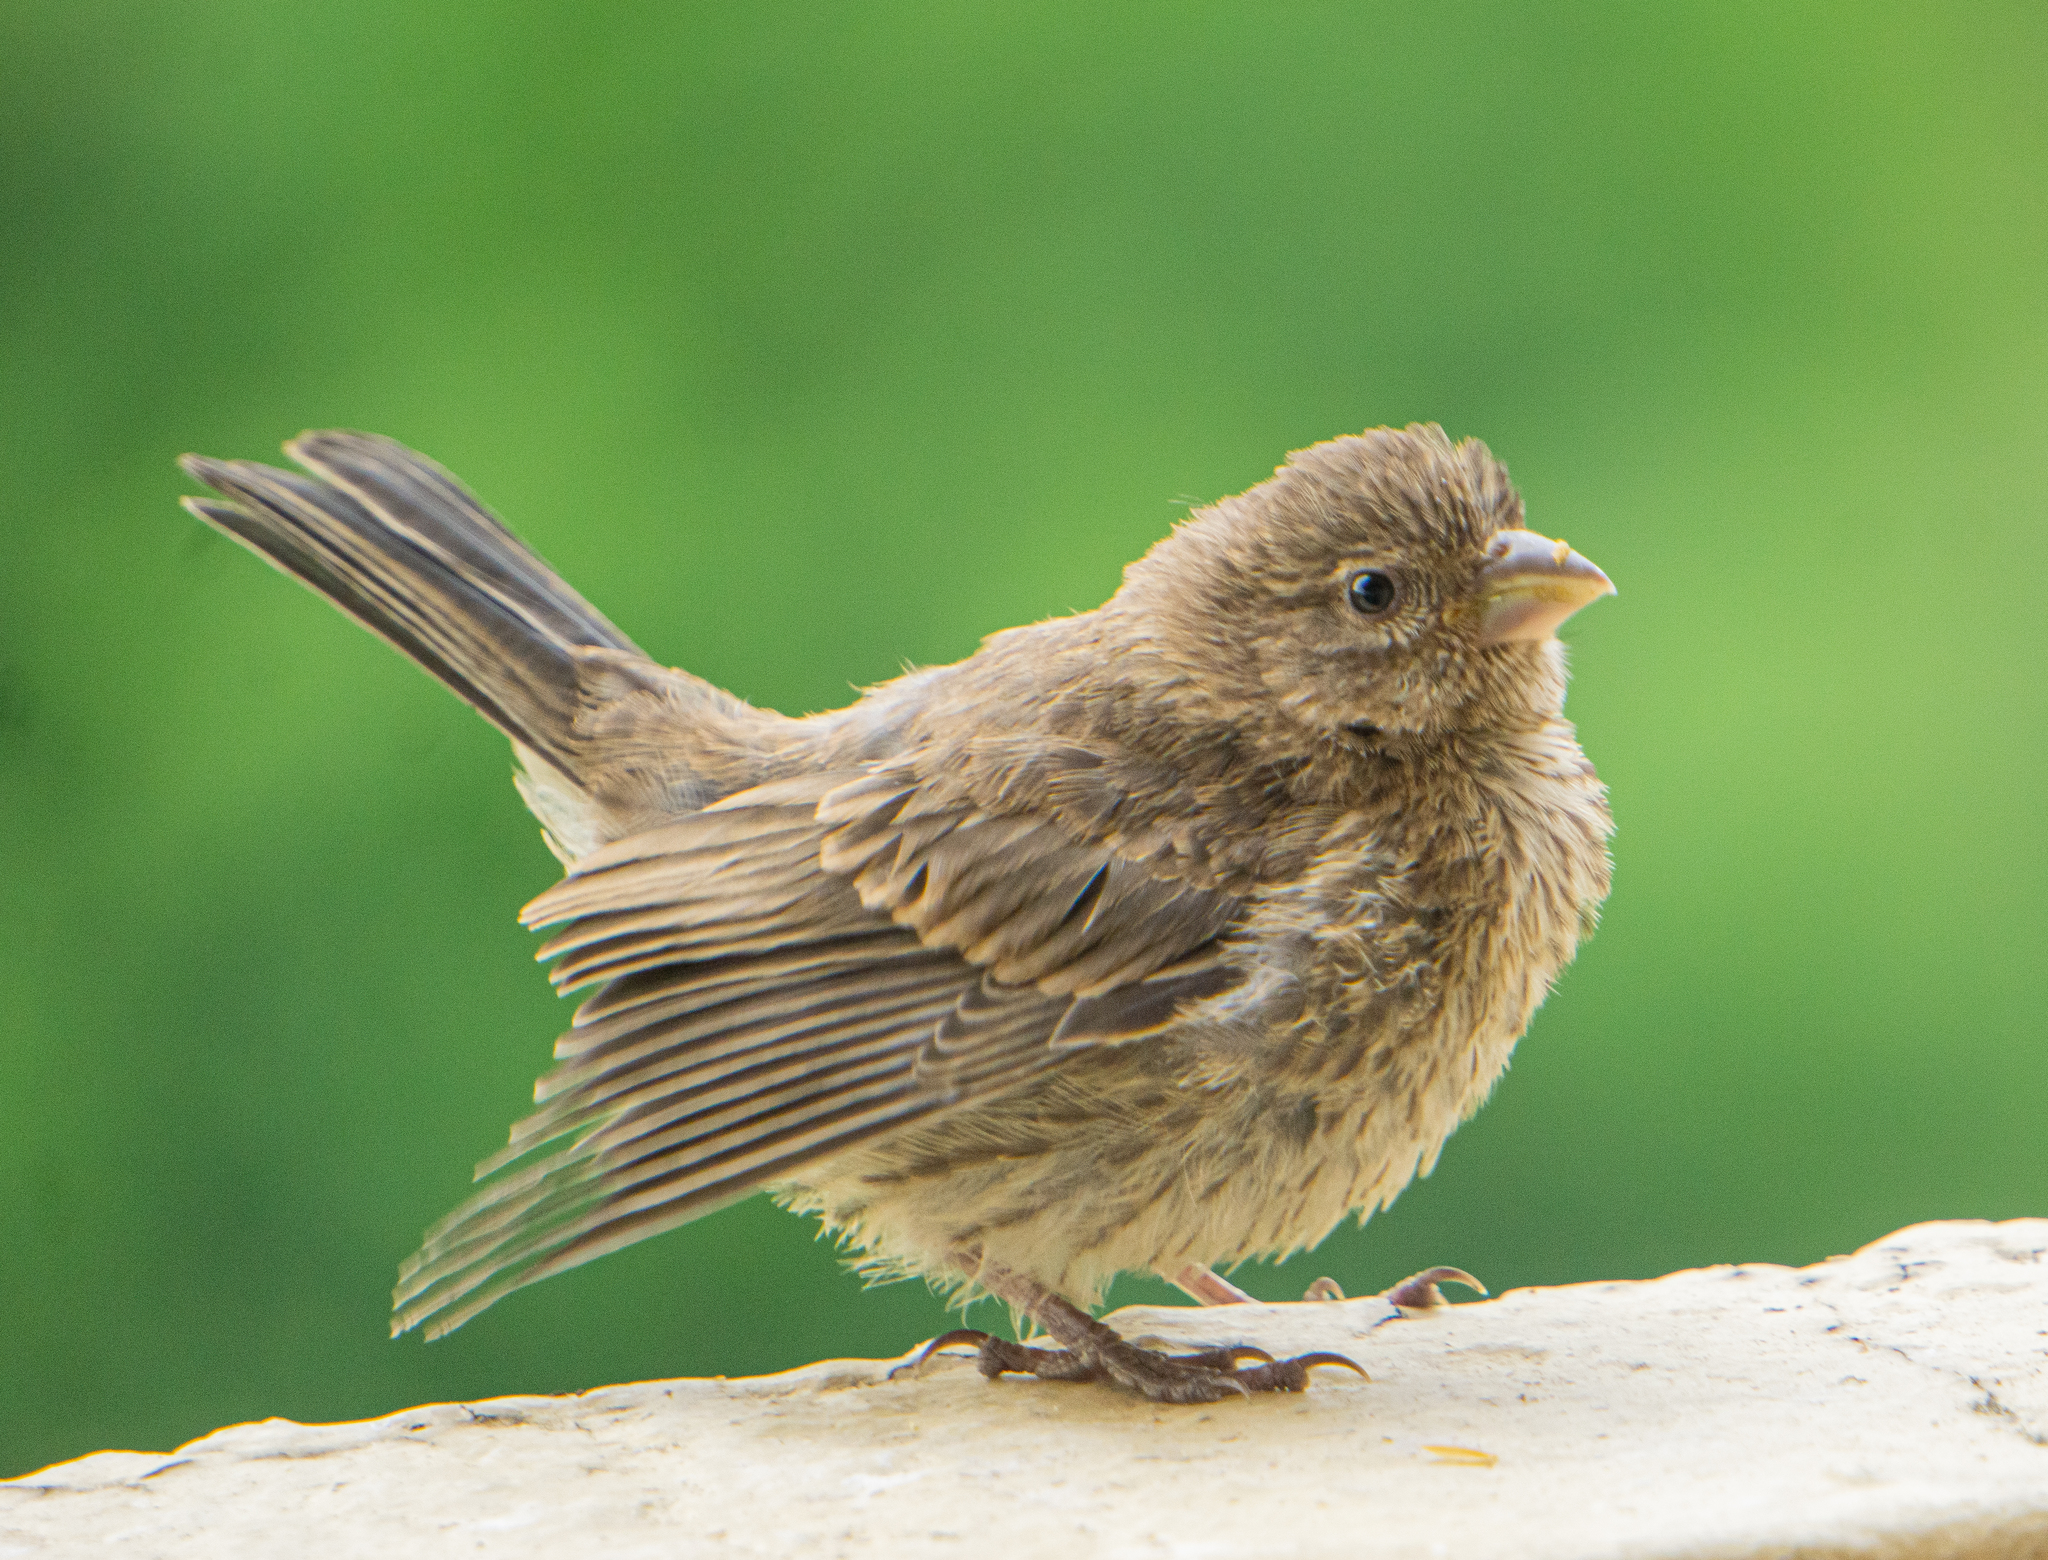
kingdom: Animalia
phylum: Chordata
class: Aves
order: Passeriformes
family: Fringillidae
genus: Haemorhous
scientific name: Haemorhous mexicanus
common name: House finch
